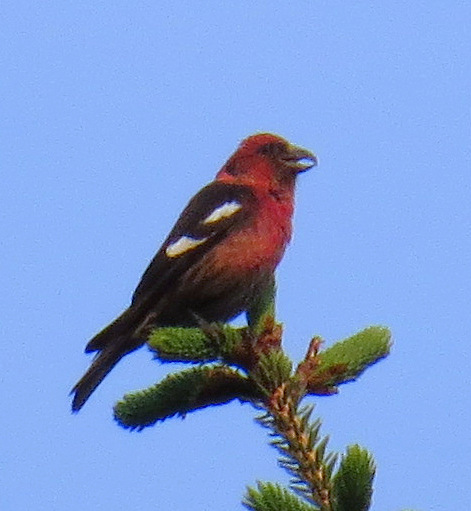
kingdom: Animalia
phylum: Chordata
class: Aves
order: Passeriformes
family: Fringillidae
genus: Loxia
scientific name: Loxia leucoptera
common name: Two-barred crossbill
